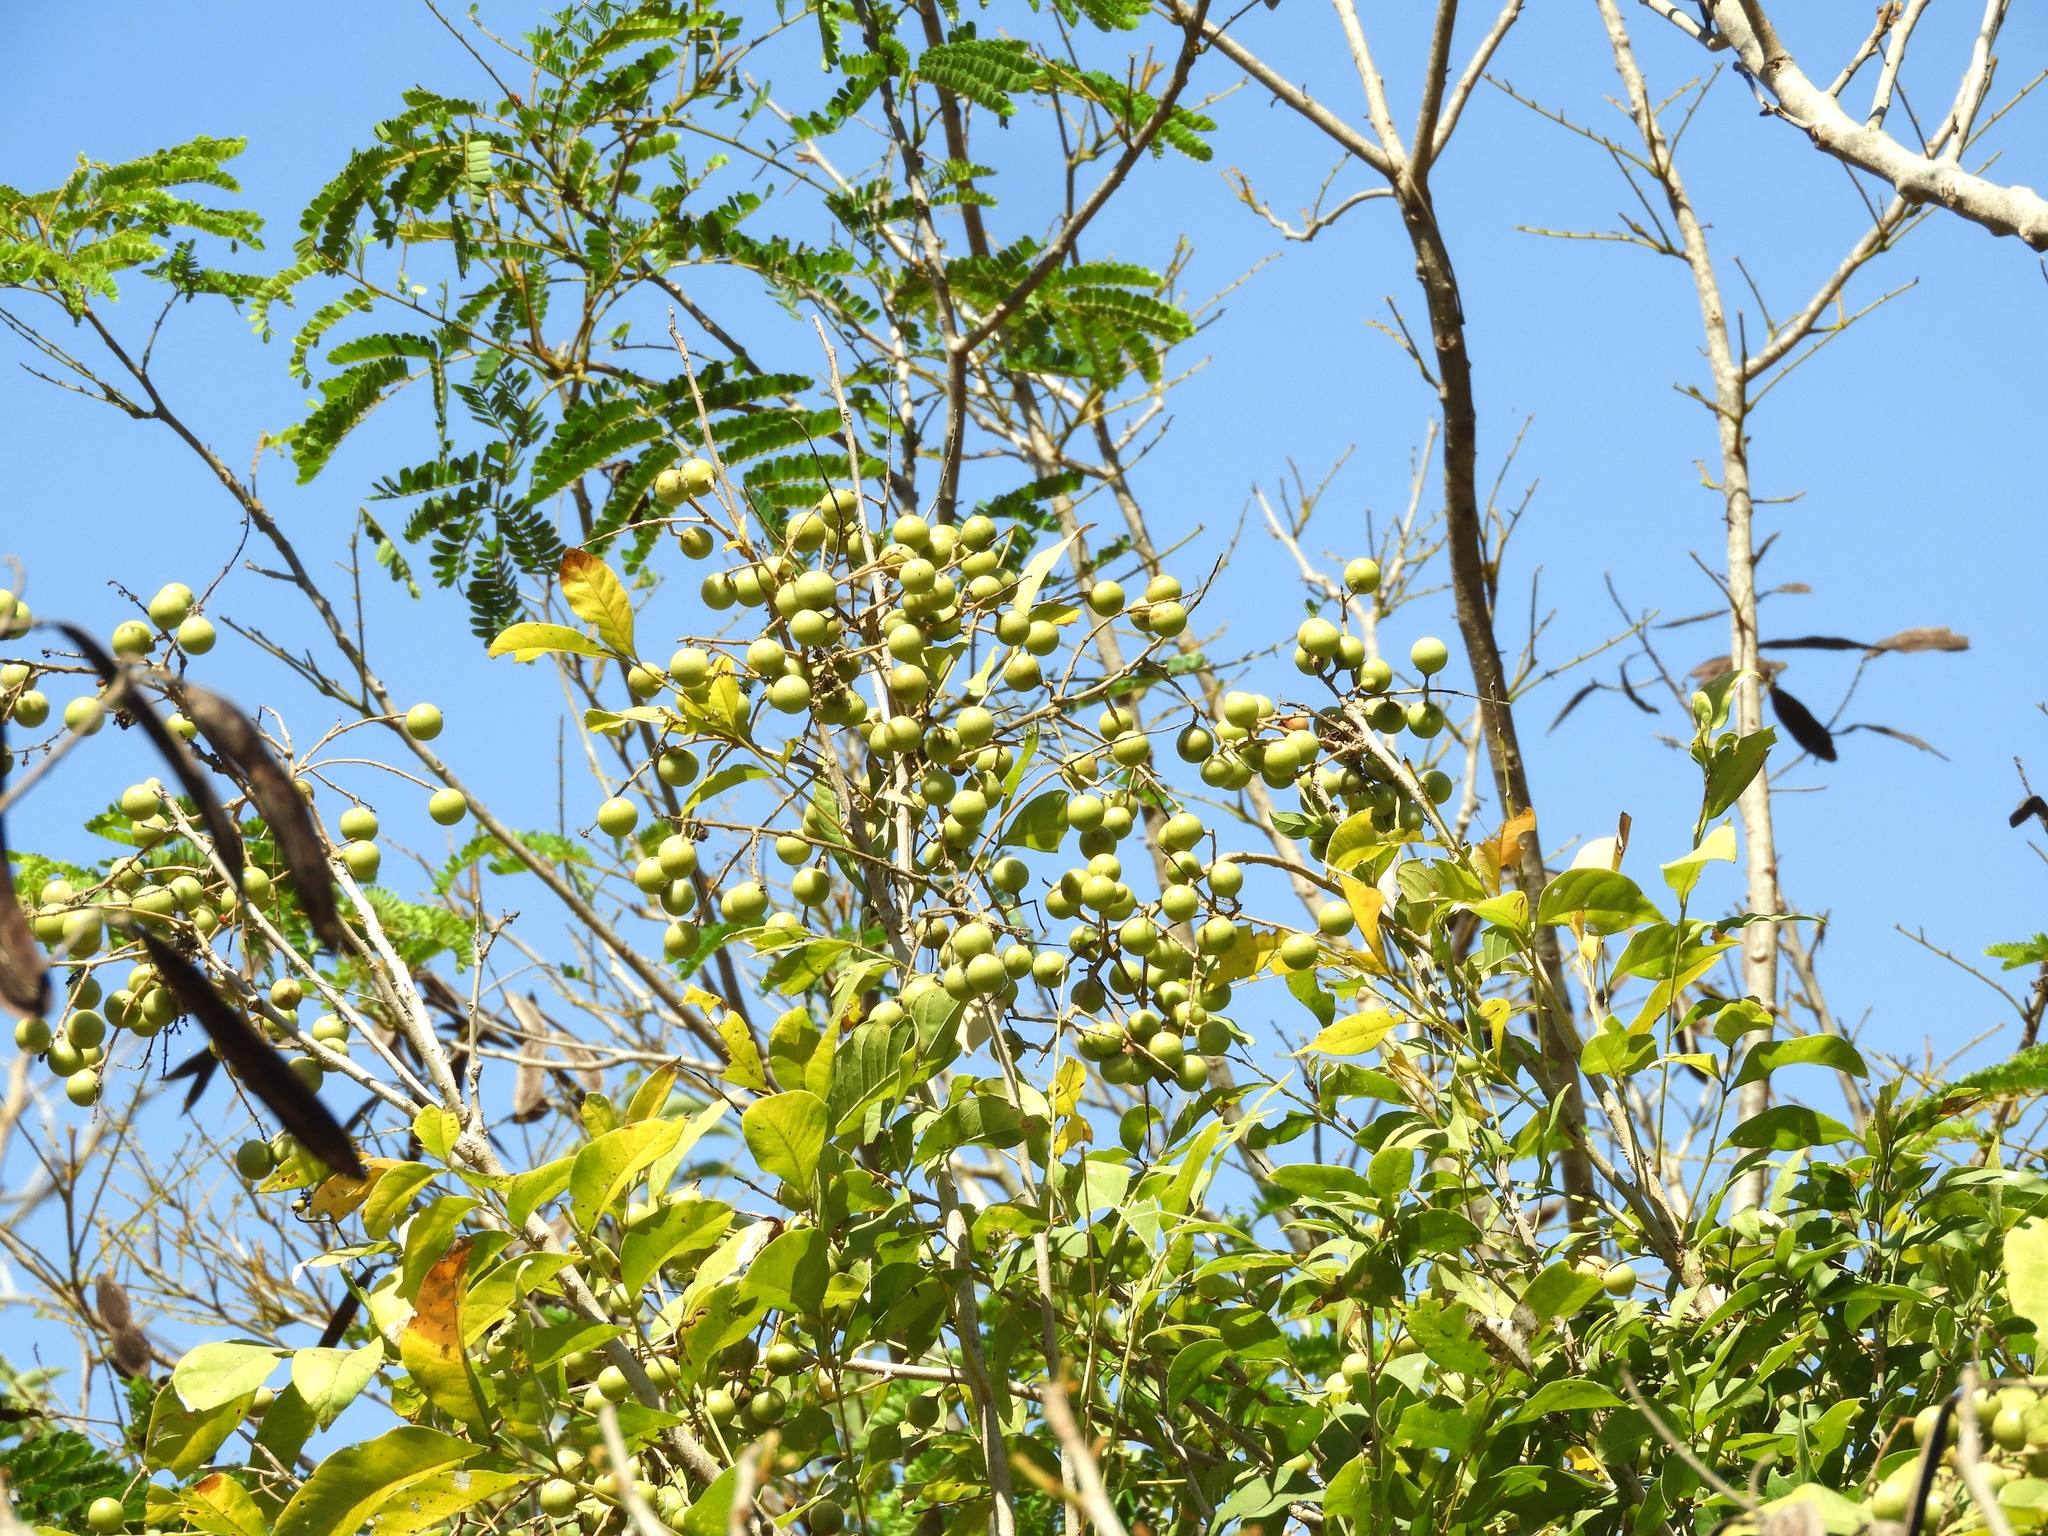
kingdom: Plantae
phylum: Tracheophyta
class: Magnoliopsida
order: Sapindales
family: Sapindaceae
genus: Sapindus
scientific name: Sapindus drummondii
